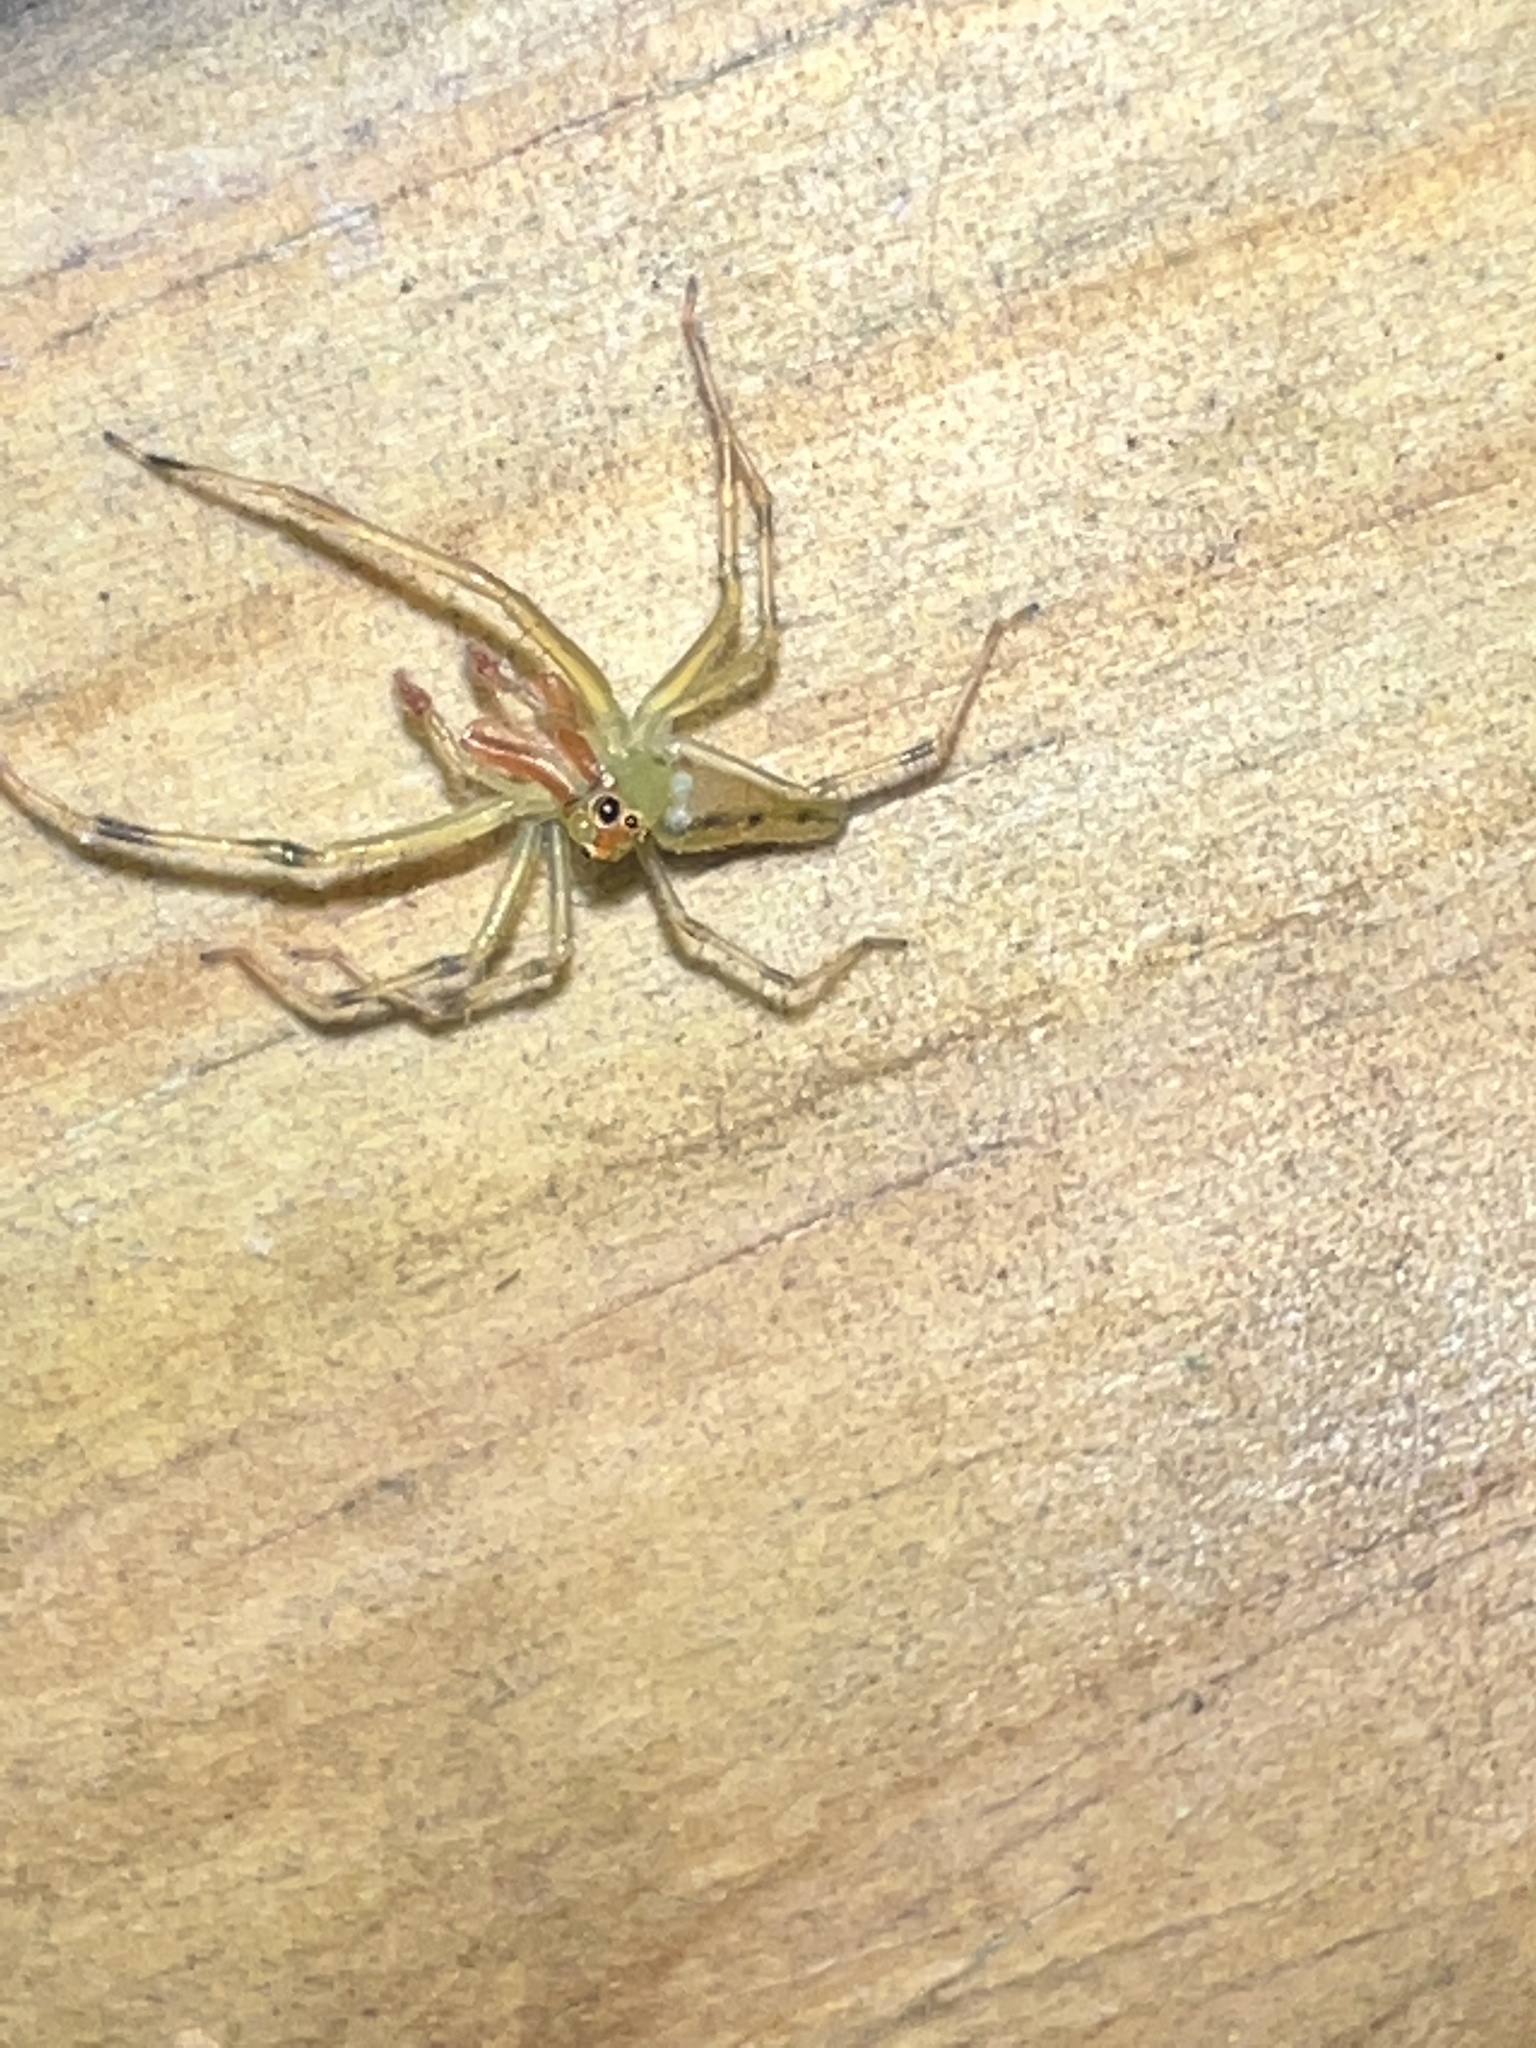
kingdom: Animalia
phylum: Arthropoda
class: Arachnida
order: Araneae
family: Salticidae
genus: Lyssomanes
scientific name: Lyssomanes viridis
